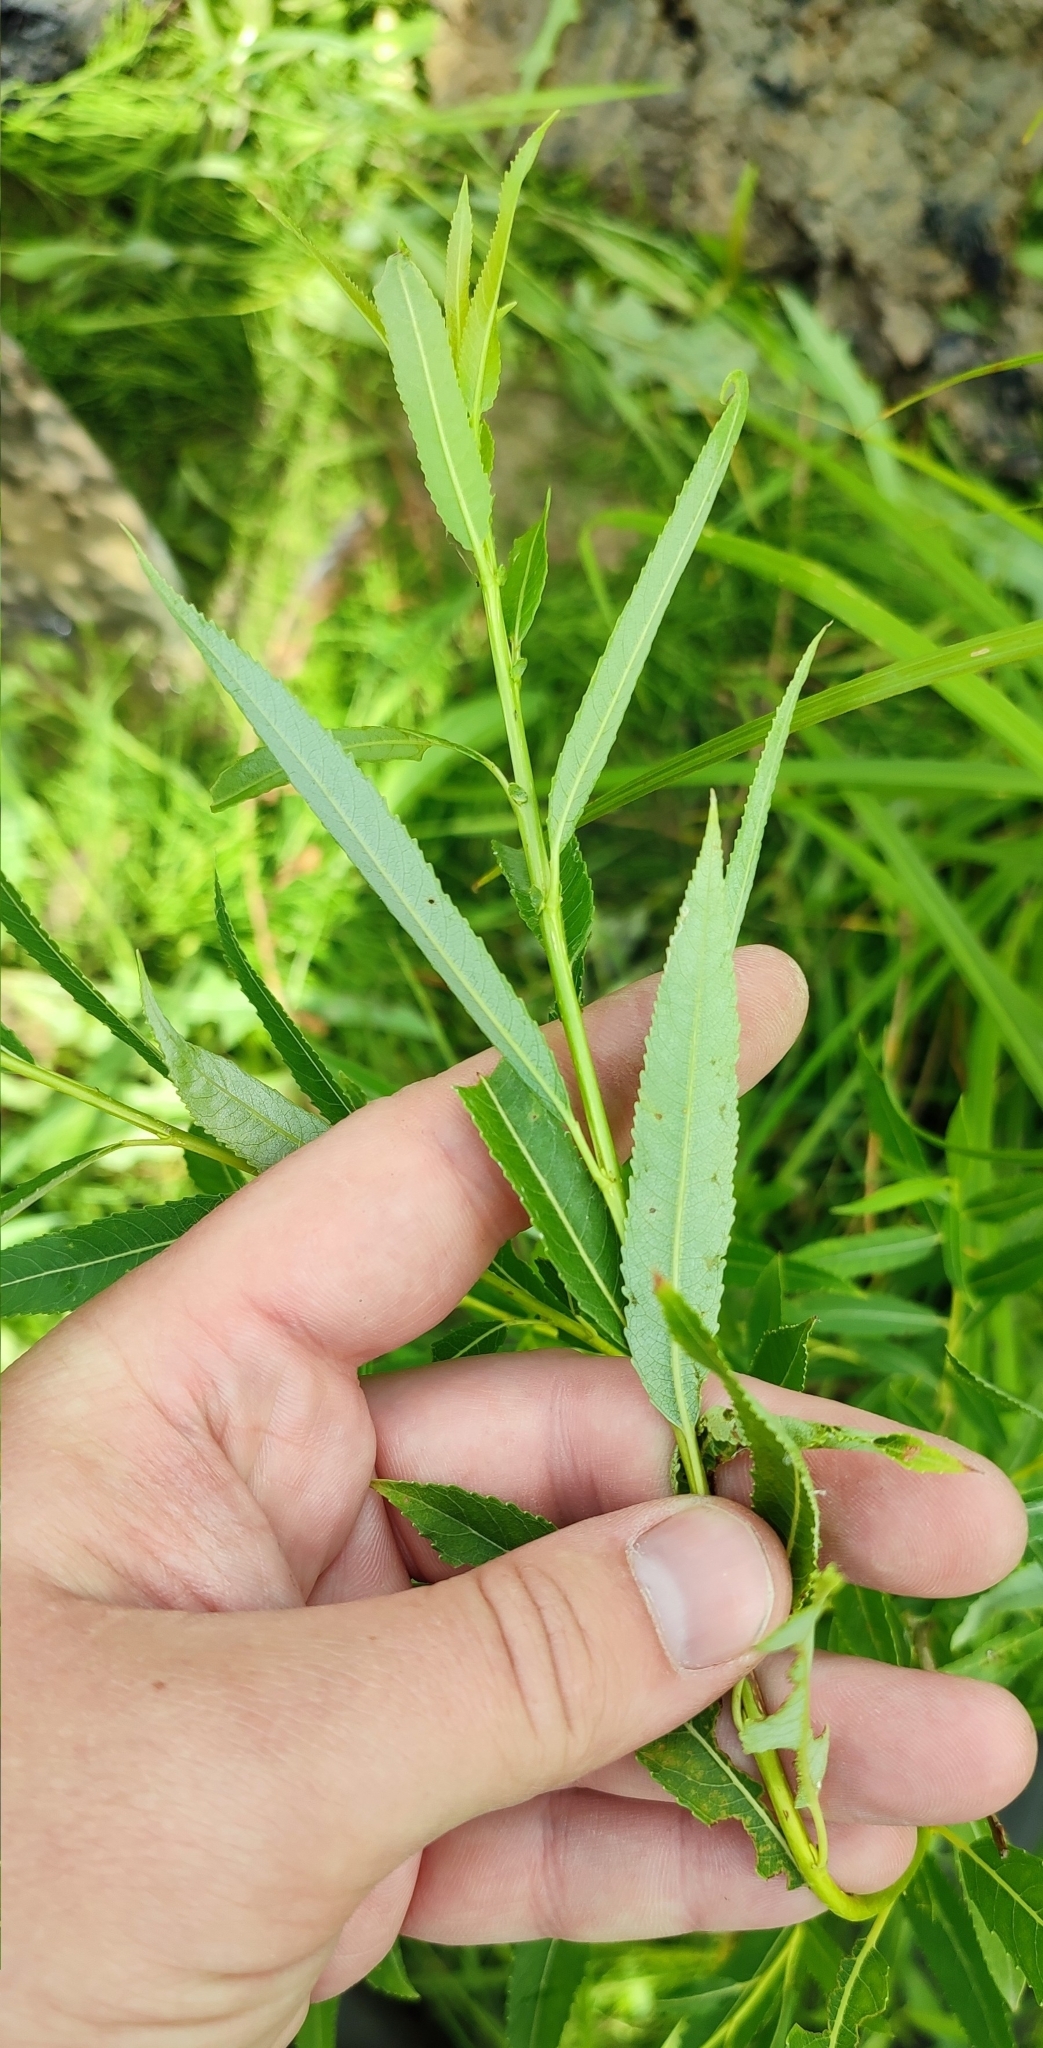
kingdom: Plantae
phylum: Tracheophyta
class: Magnoliopsida
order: Malpighiales
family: Salicaceae
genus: Salix
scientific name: Salix triandra
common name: Almond willow
